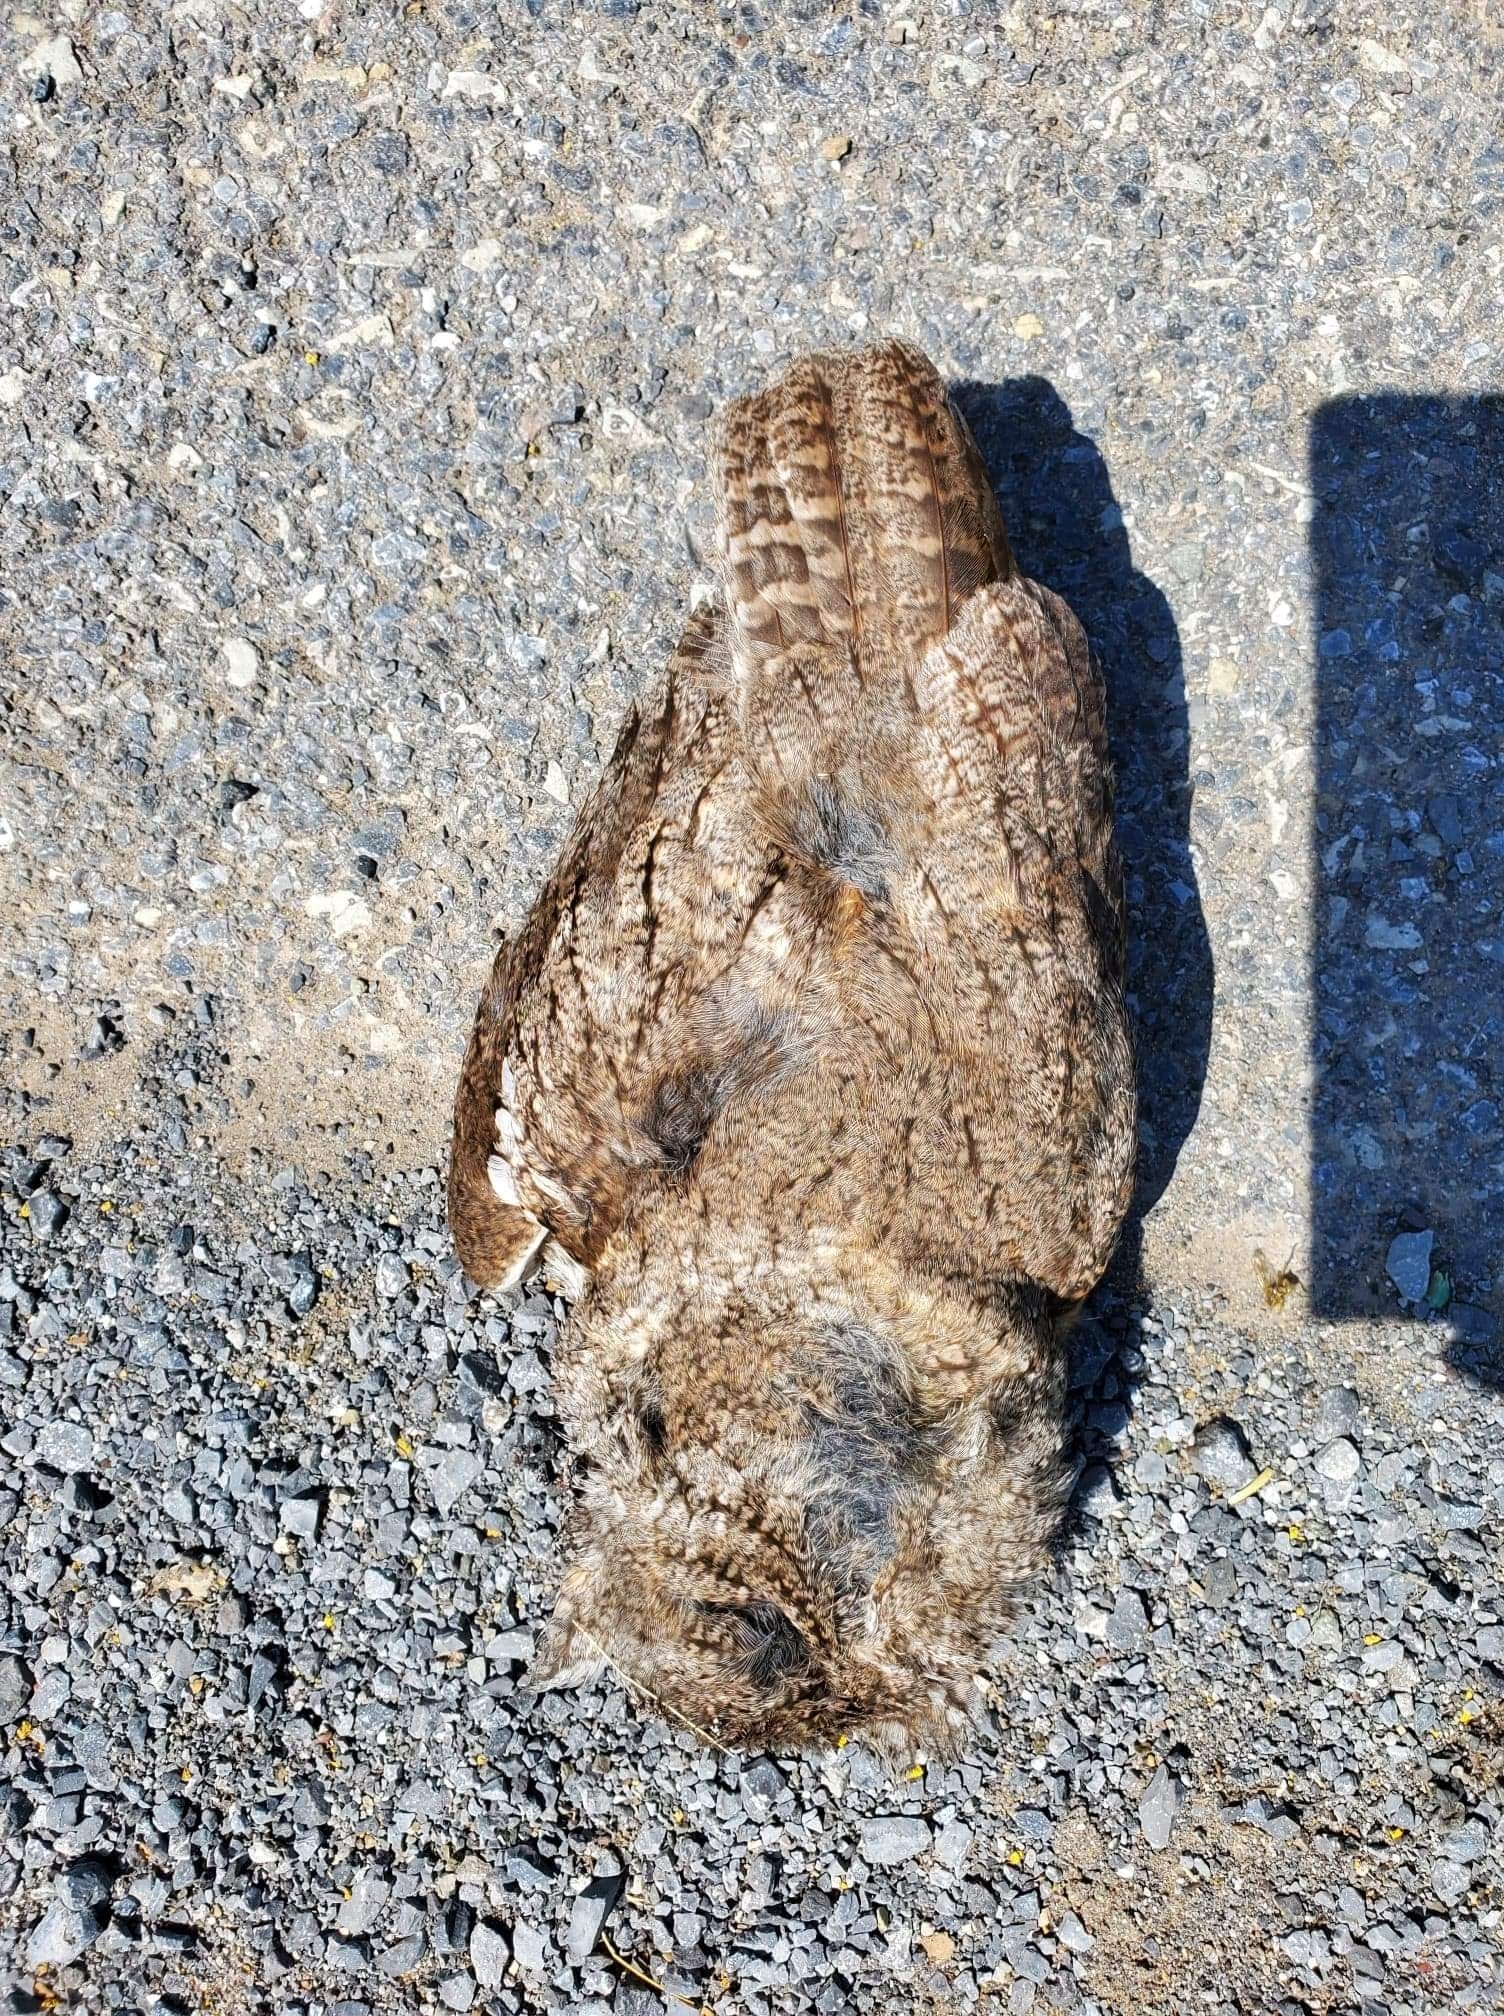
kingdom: Animalia
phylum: Chordata
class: Aves
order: Strigiformes
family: Strigidae
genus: Megascops
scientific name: Megascops asio
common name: Eastern screech-owl
